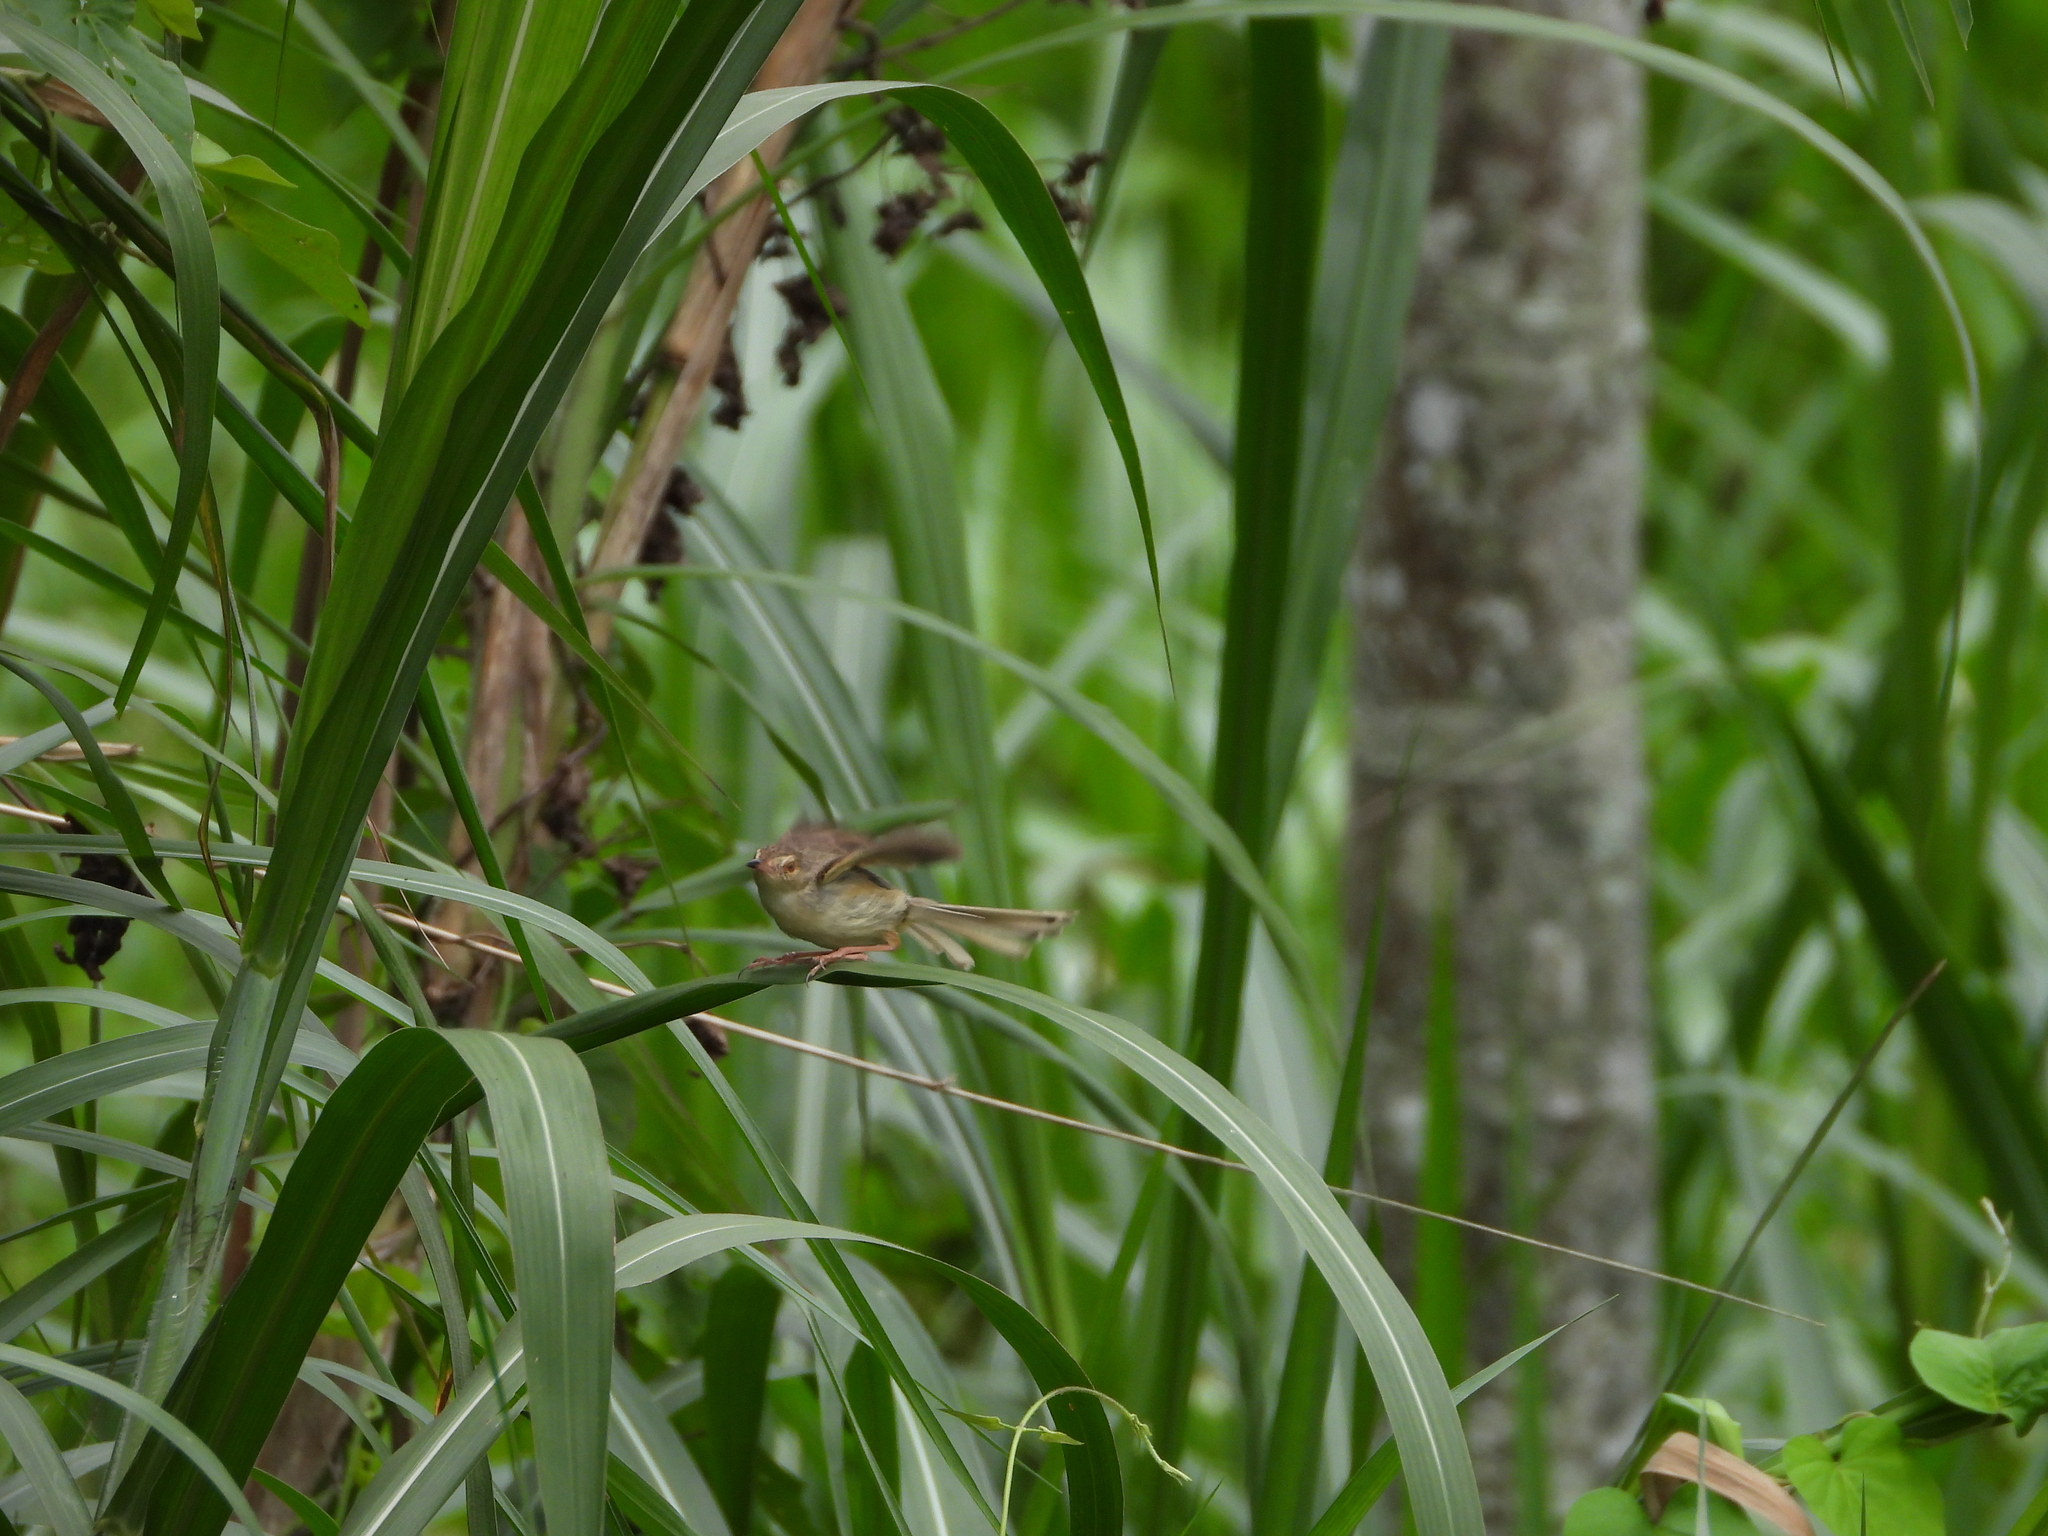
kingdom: Animalia
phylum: Chordata
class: Aves
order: Passeriformes
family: Cisticolidae
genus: Prinia
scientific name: Prinia inornata
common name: Plain prinia
